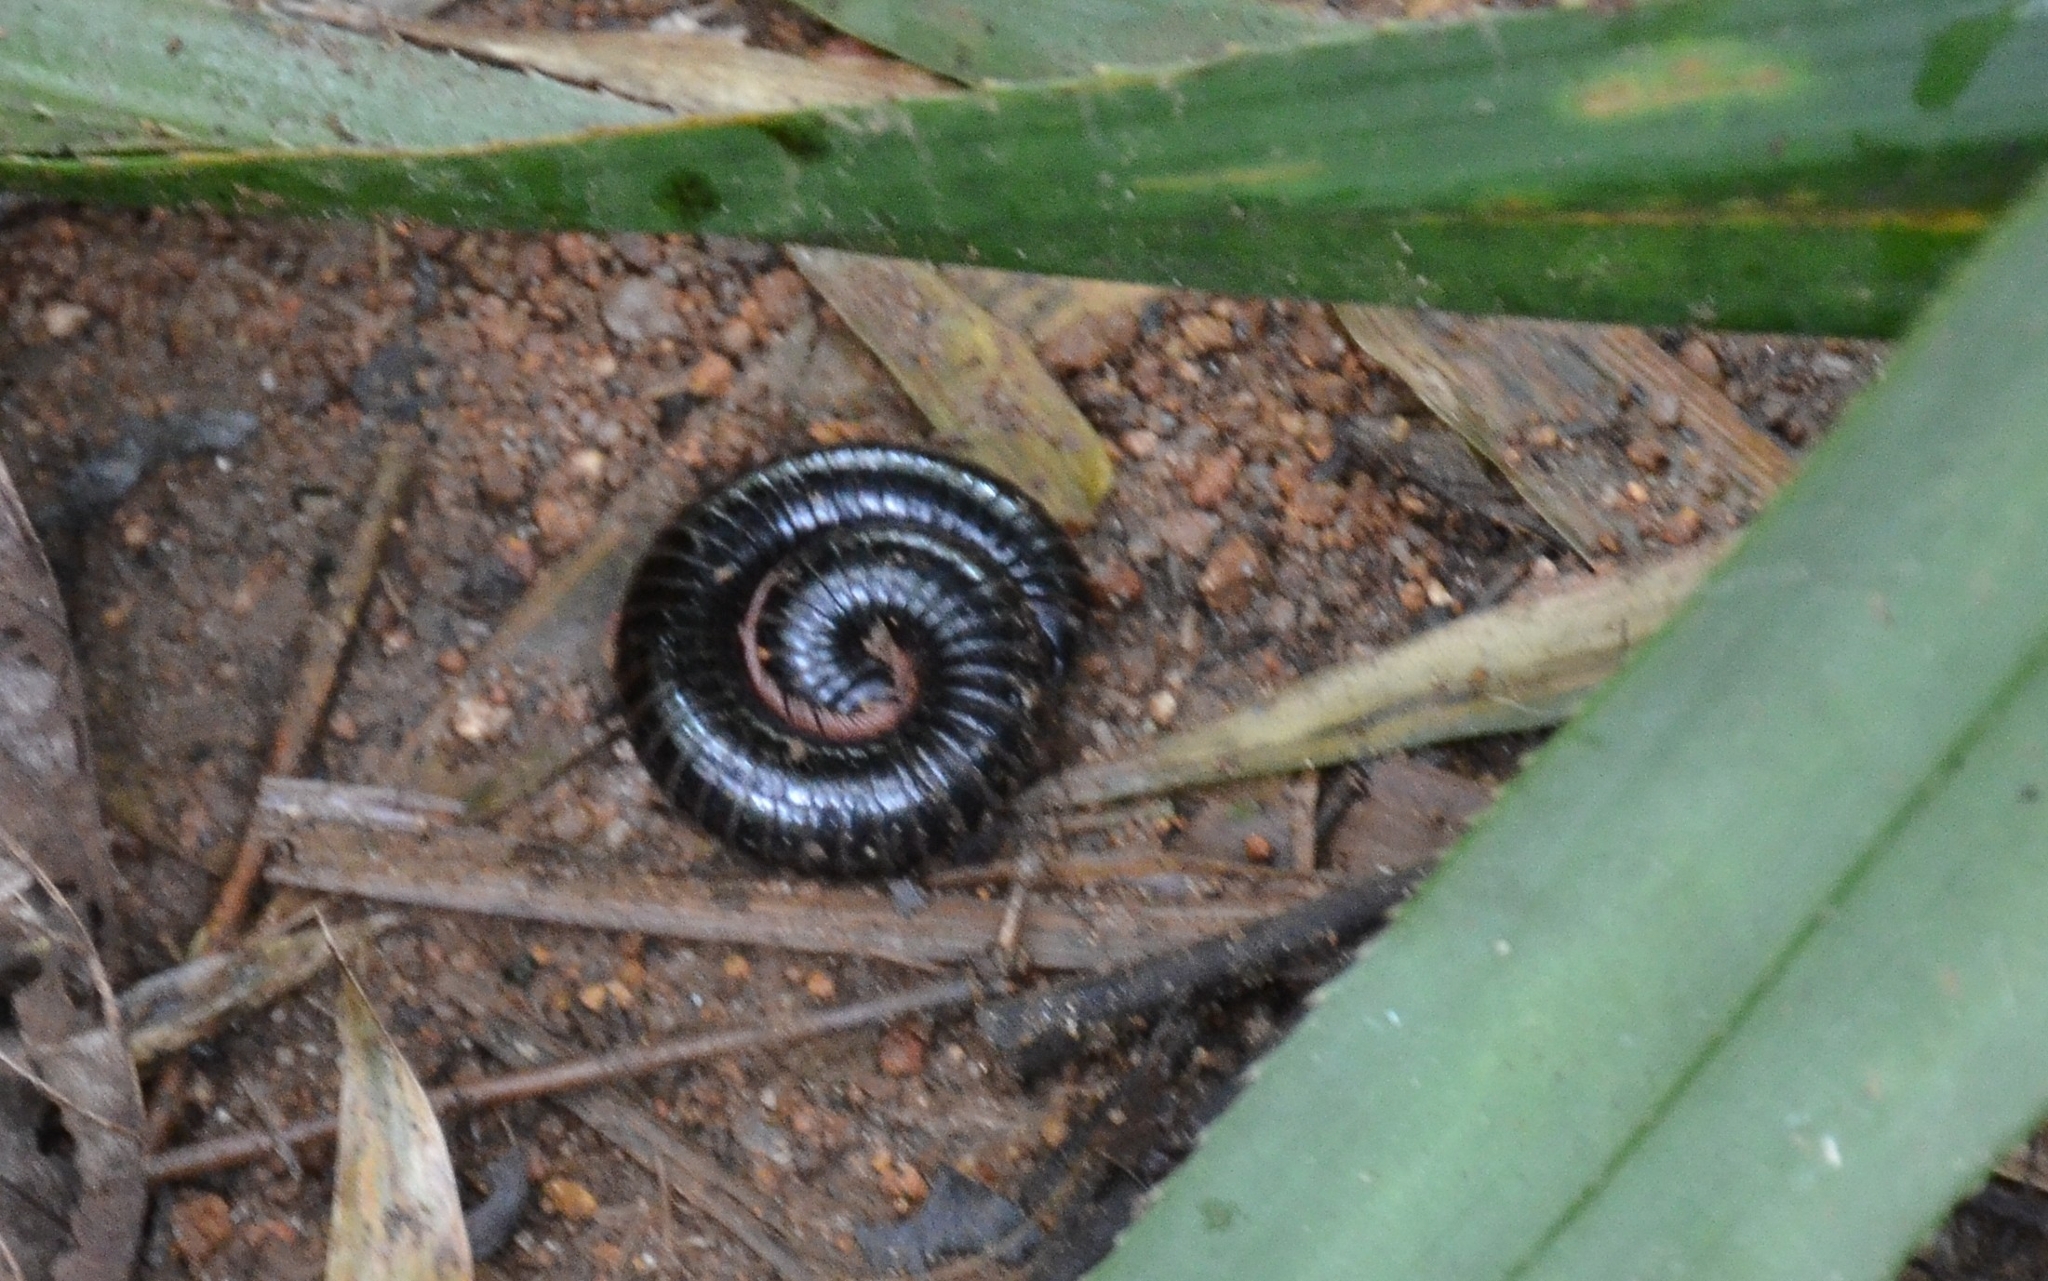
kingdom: Animalia
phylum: Arthropoda
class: Diplopoda
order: Spirostreptida
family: Harpagophoridae
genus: Phyllogonostreptus
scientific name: Phyllogonostreptus nigrolabiatus
